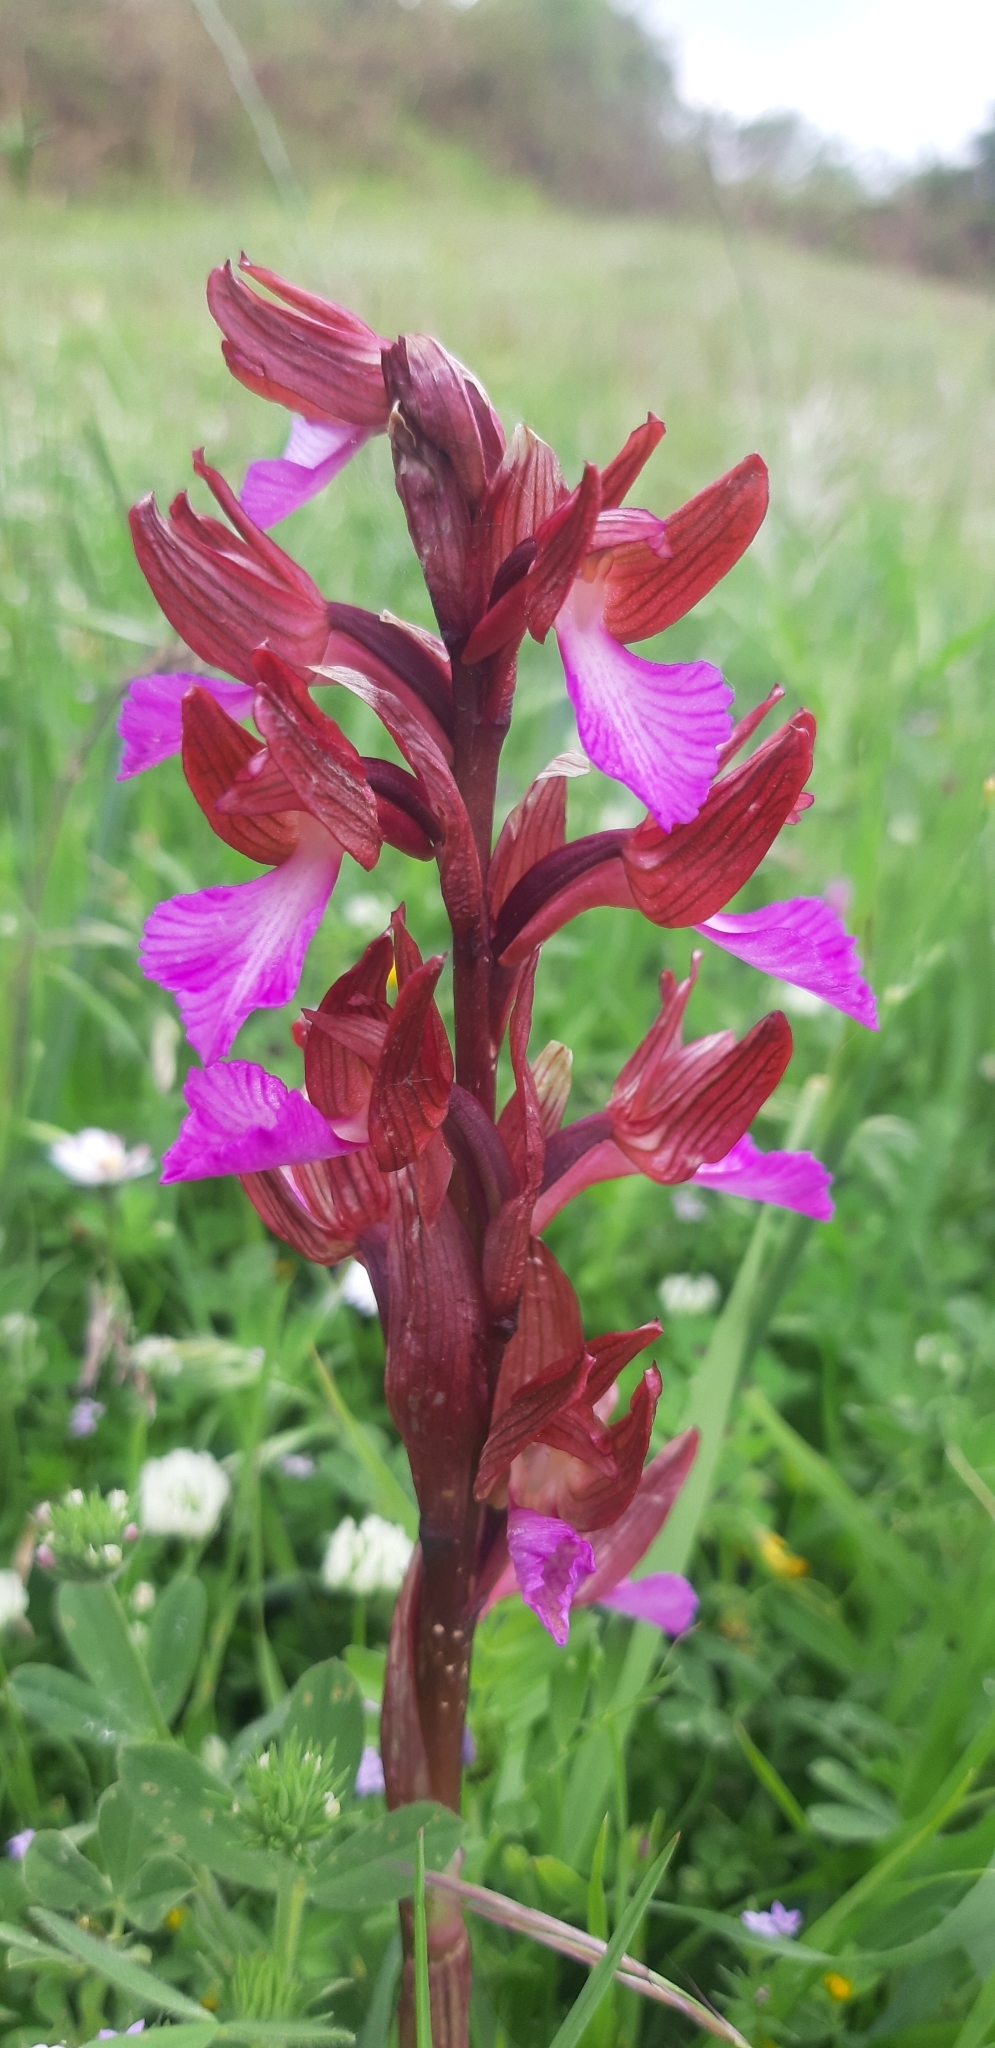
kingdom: Plantae
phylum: Tracheophyta
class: Liliopsida
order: Asparagales
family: Orchidaceae
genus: Anacamptis
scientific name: Anacamptis papilionacea
